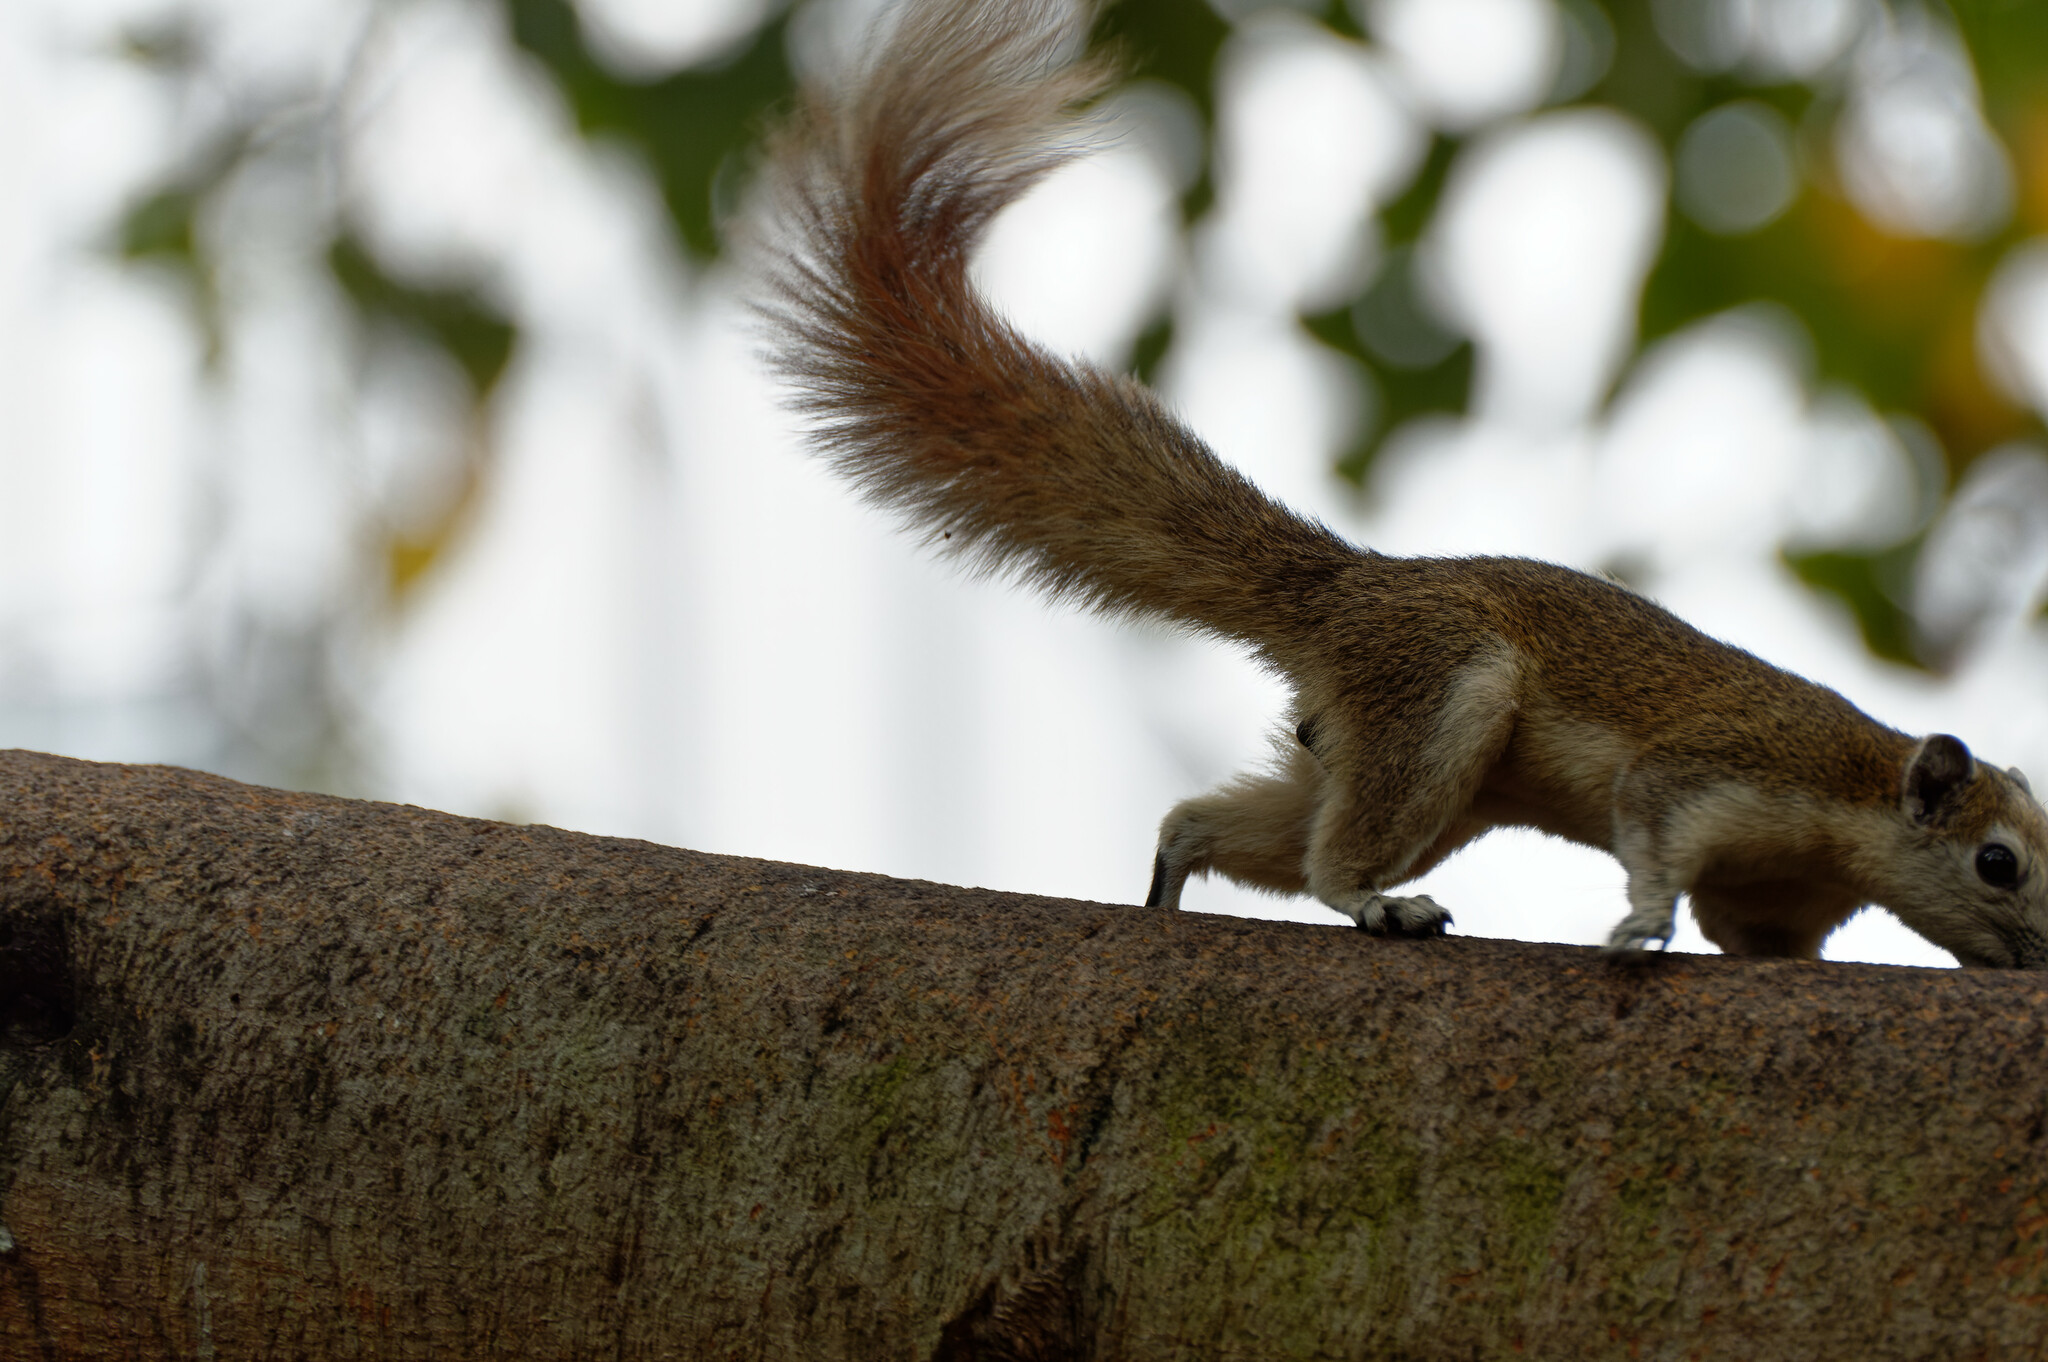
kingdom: Animalia
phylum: Chordata
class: Mammalia
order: Rodentia
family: Sciuridae
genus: Callosciurus
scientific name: Callosciurus finlaysonii
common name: Finlayson's squirrel
